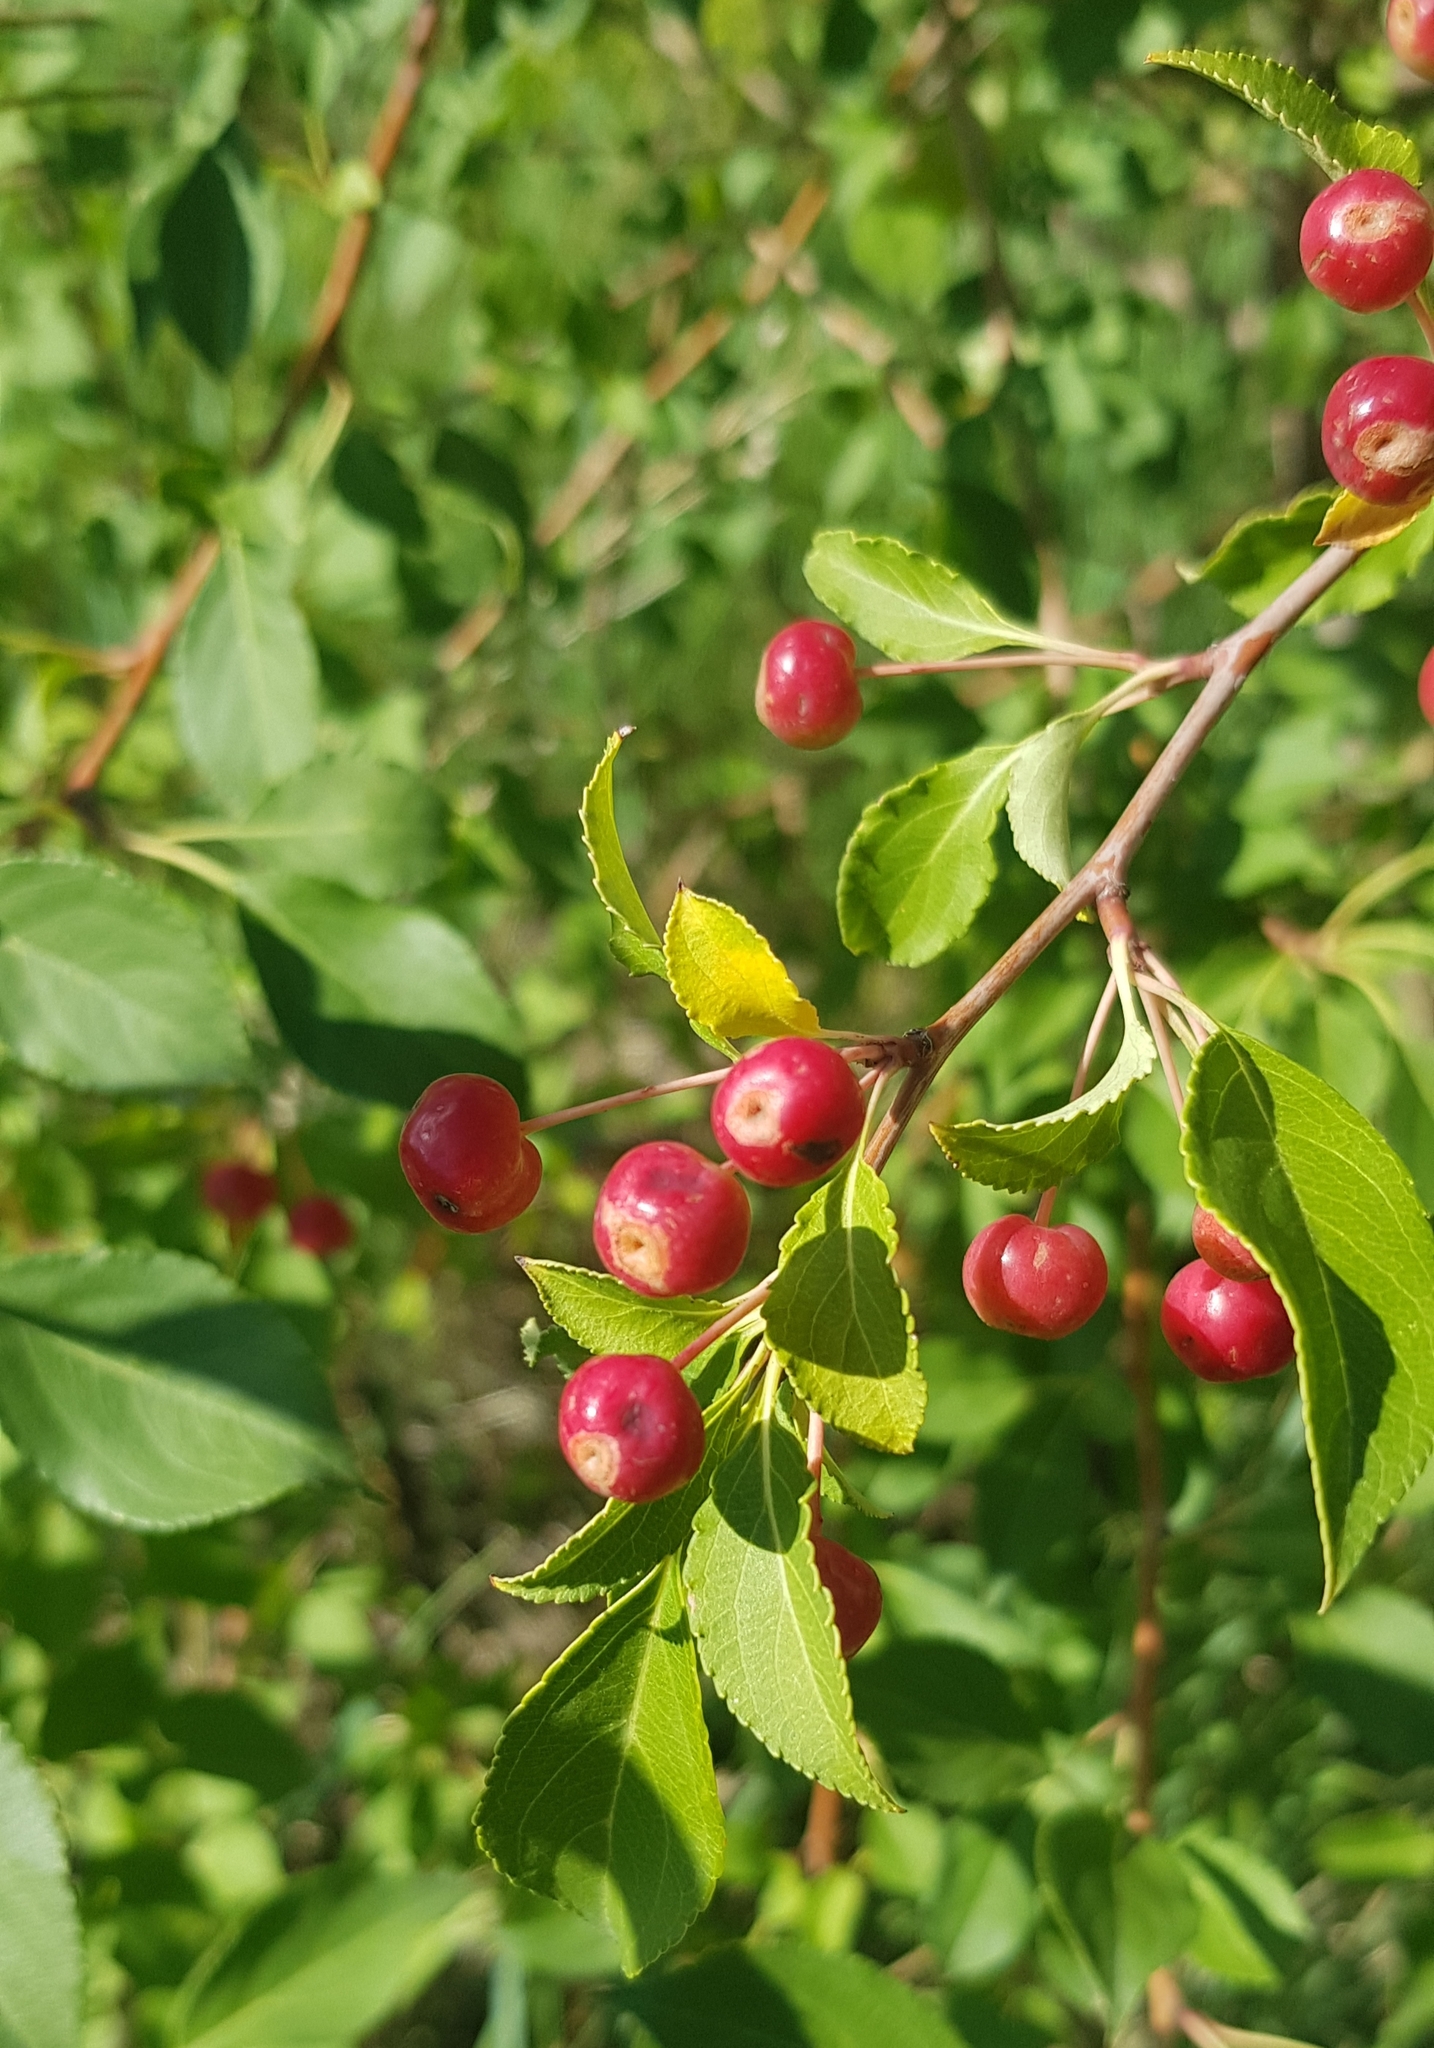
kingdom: Plantae
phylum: Tracheophyta
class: Magnoliopsida
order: Rosales
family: Rosaceae
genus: Malus
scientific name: Malus baccata
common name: Siberian crab
